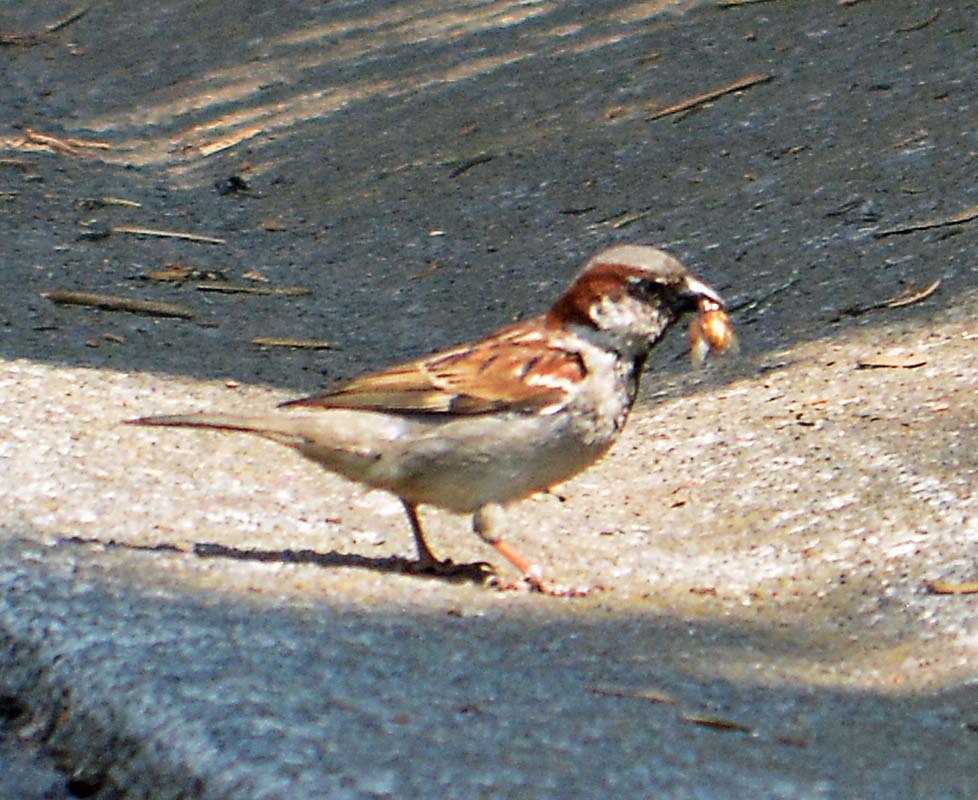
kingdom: Animalia
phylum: Chordata
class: Aves
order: Passeriformes
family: Passeridae
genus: Passer
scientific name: Passer domesticus
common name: House sparrow
